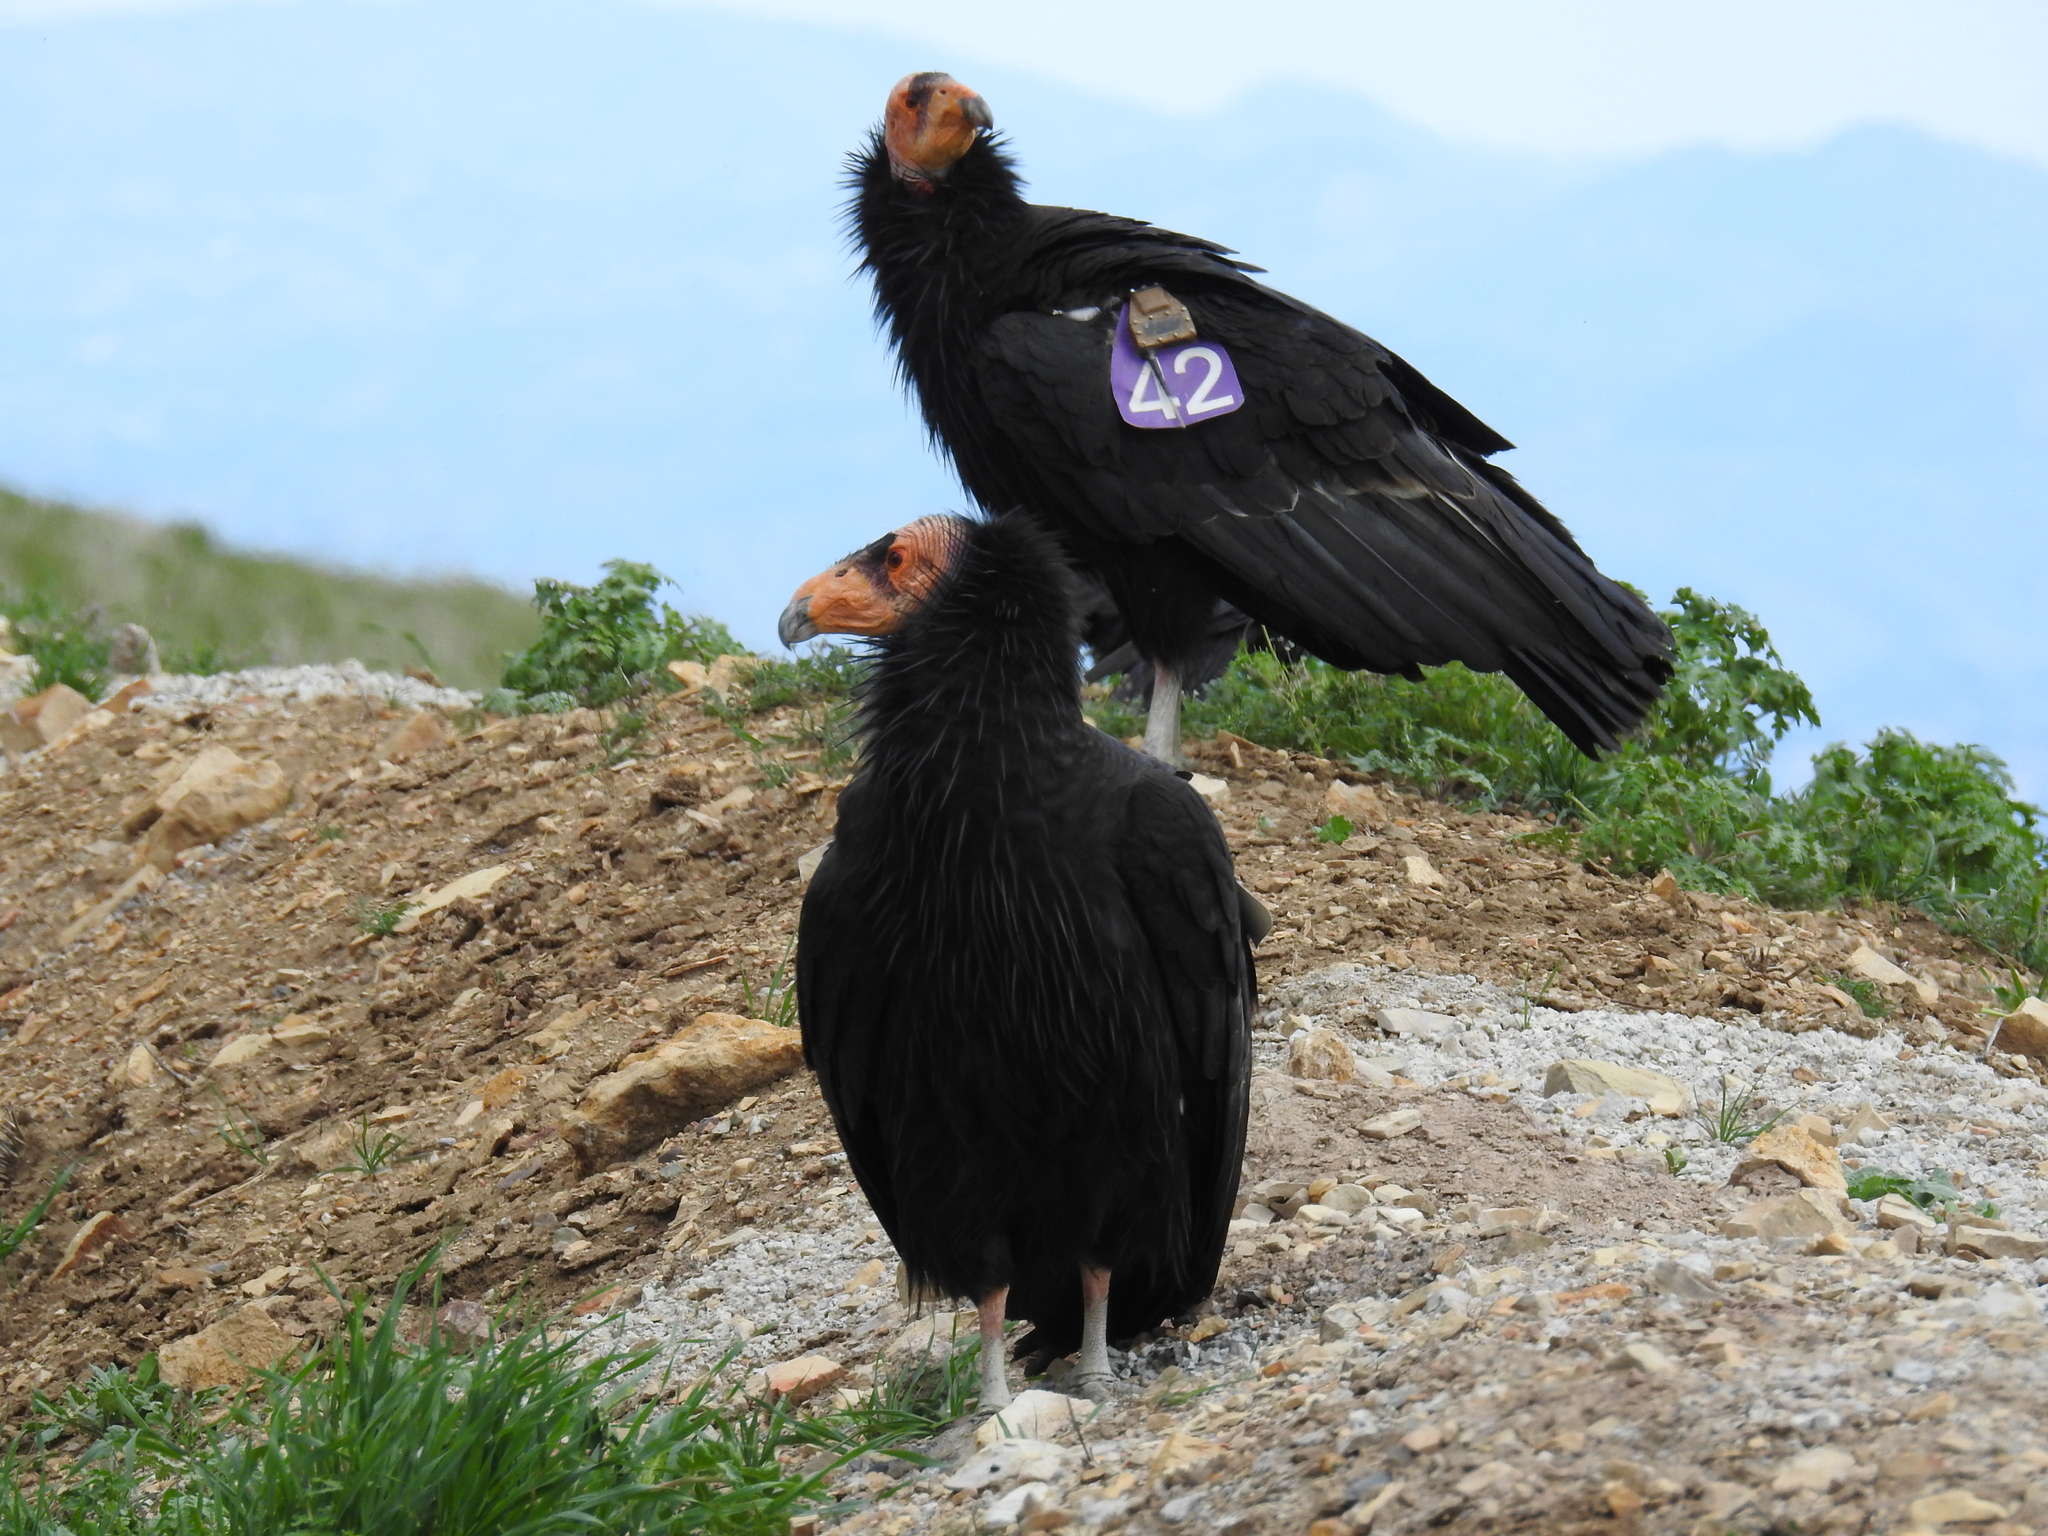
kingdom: Animalia
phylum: Chordata
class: Aves
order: Accipitriformes
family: Cathartidae
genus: Gymnogyps
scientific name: Gymnogyps californianus
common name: California condor
